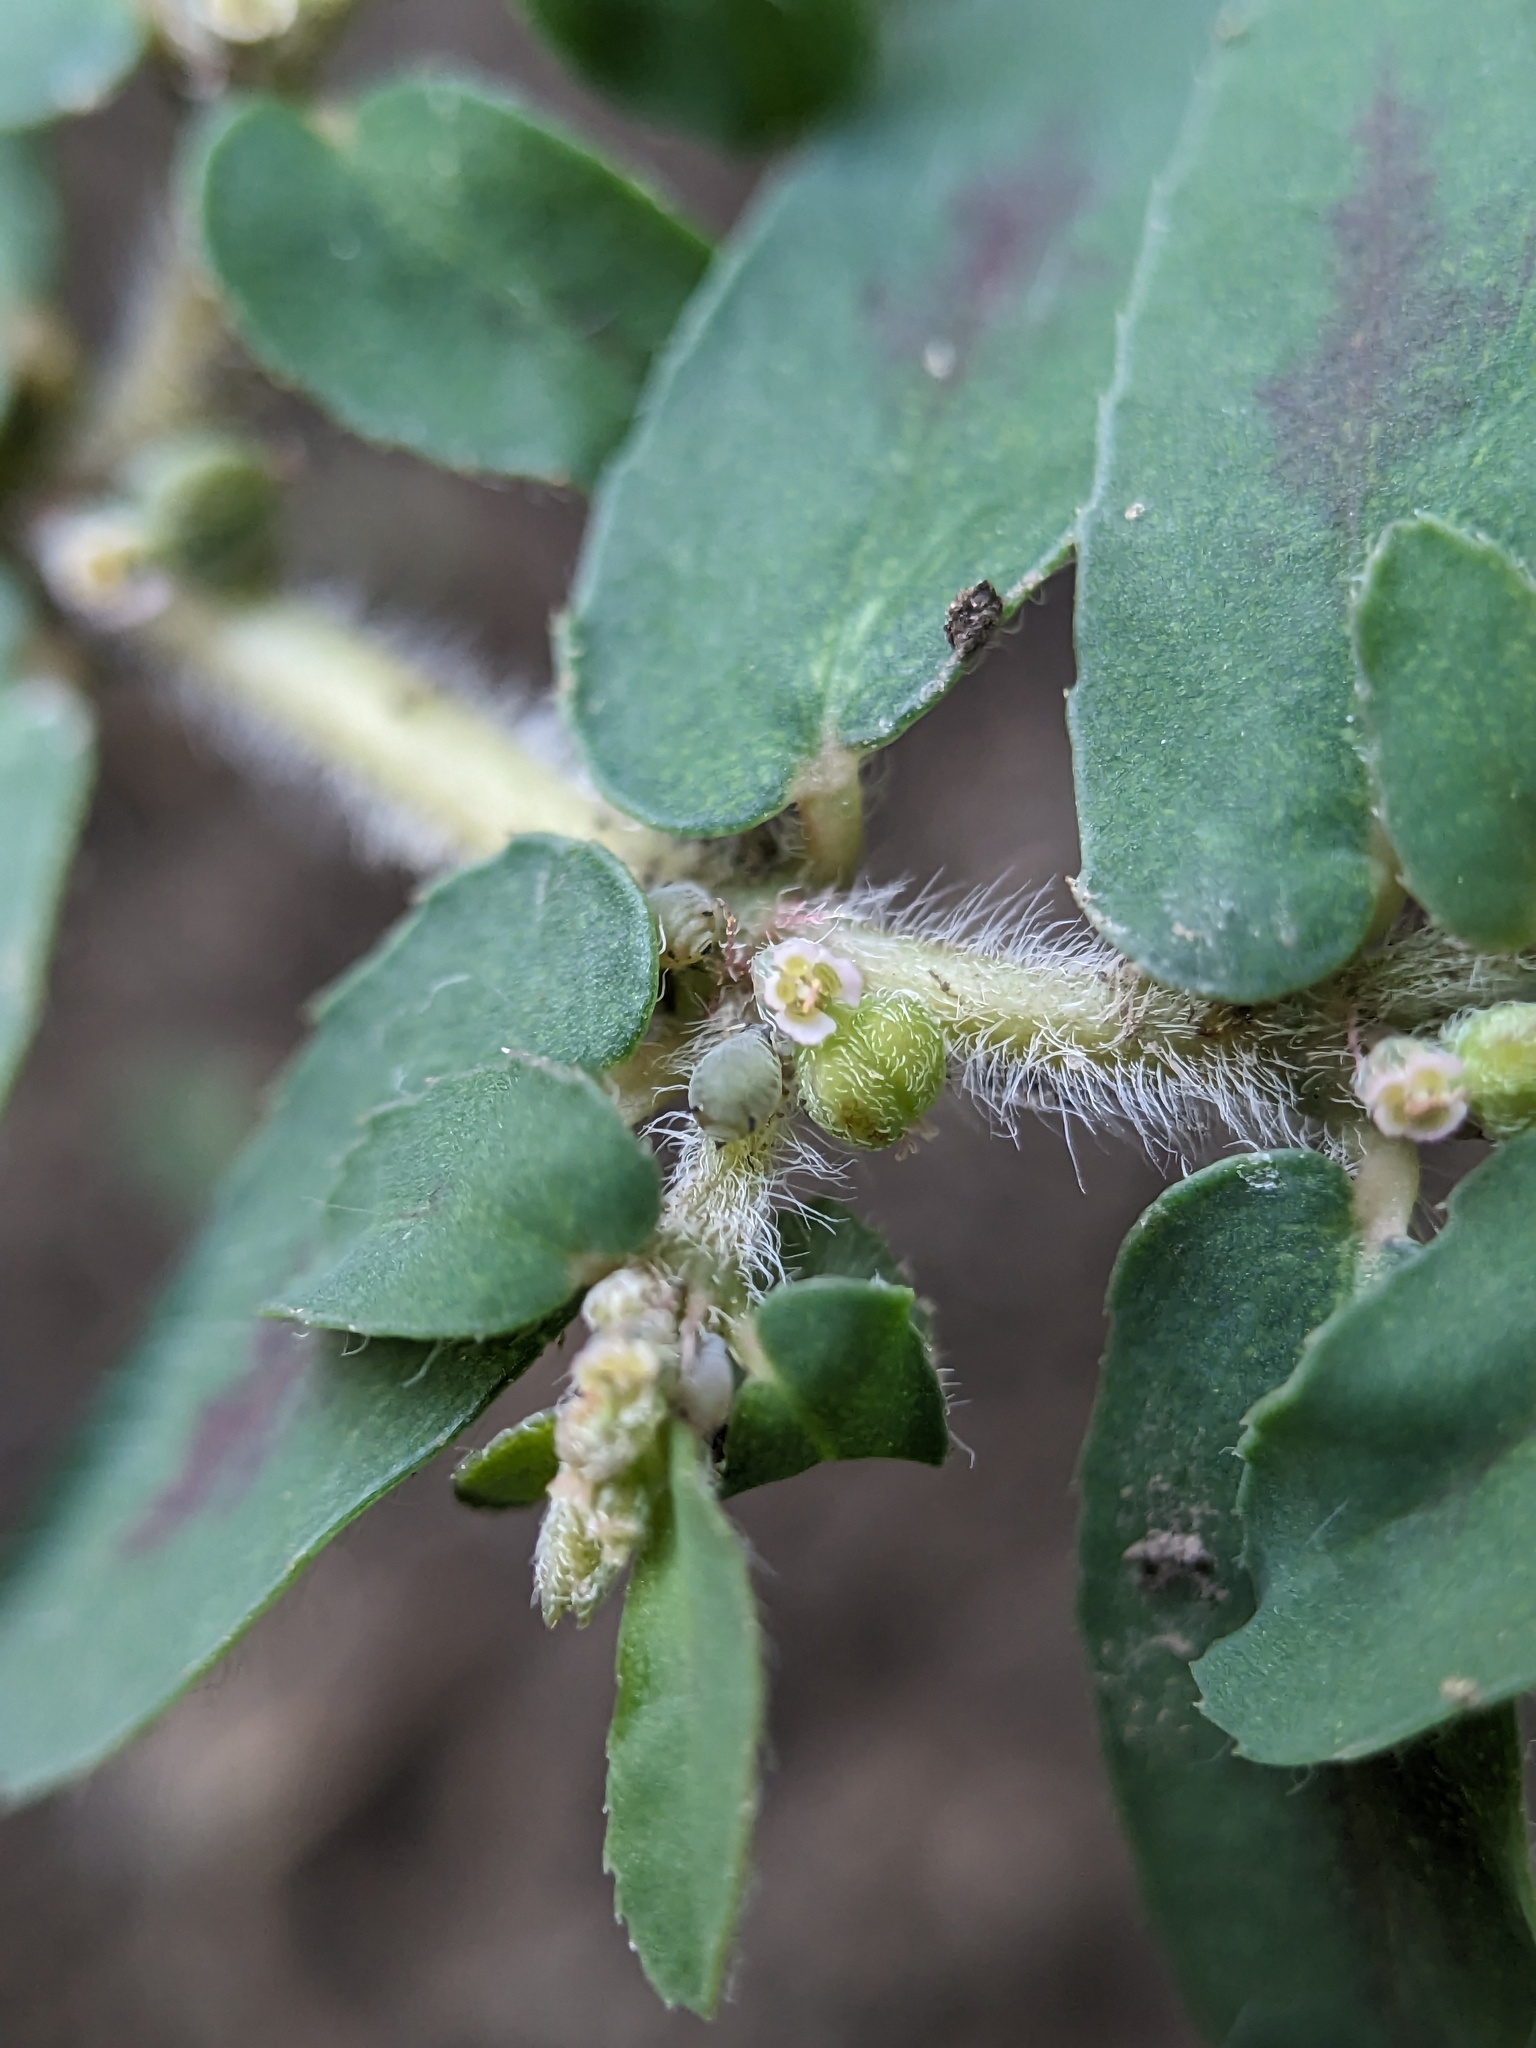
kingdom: Plantae
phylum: Tracheophyta
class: Magnoliopsida
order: Malpighiales
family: Euphorbiaceae
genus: Euphorbia
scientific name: Euphorbia maculata
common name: Spotted spurge
